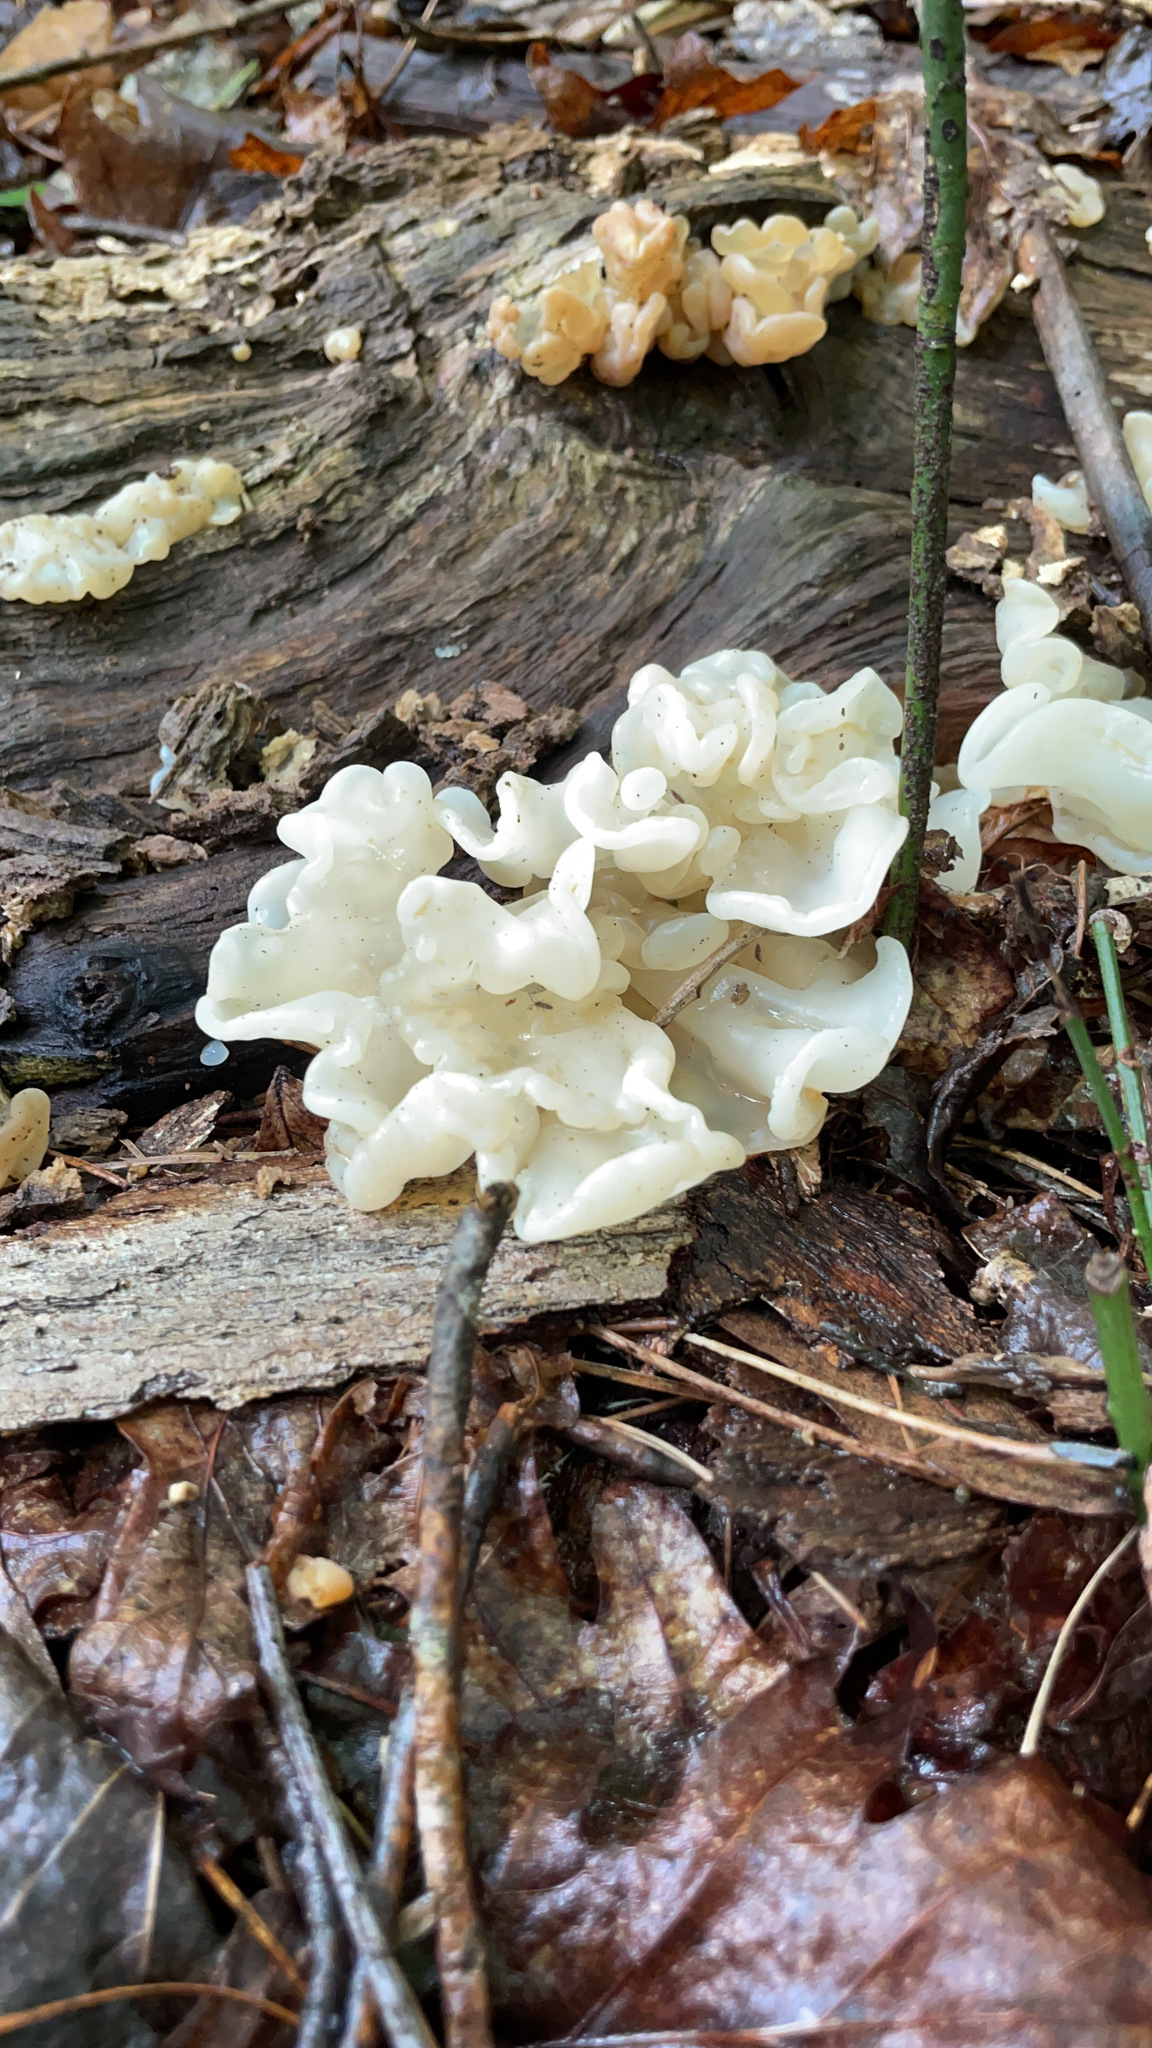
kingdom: Fungi
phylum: Basidiomycota
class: Agaricomycetes
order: Auriculariales
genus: Ductifera
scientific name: Ductifera pululahuana
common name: White jelly fungus
